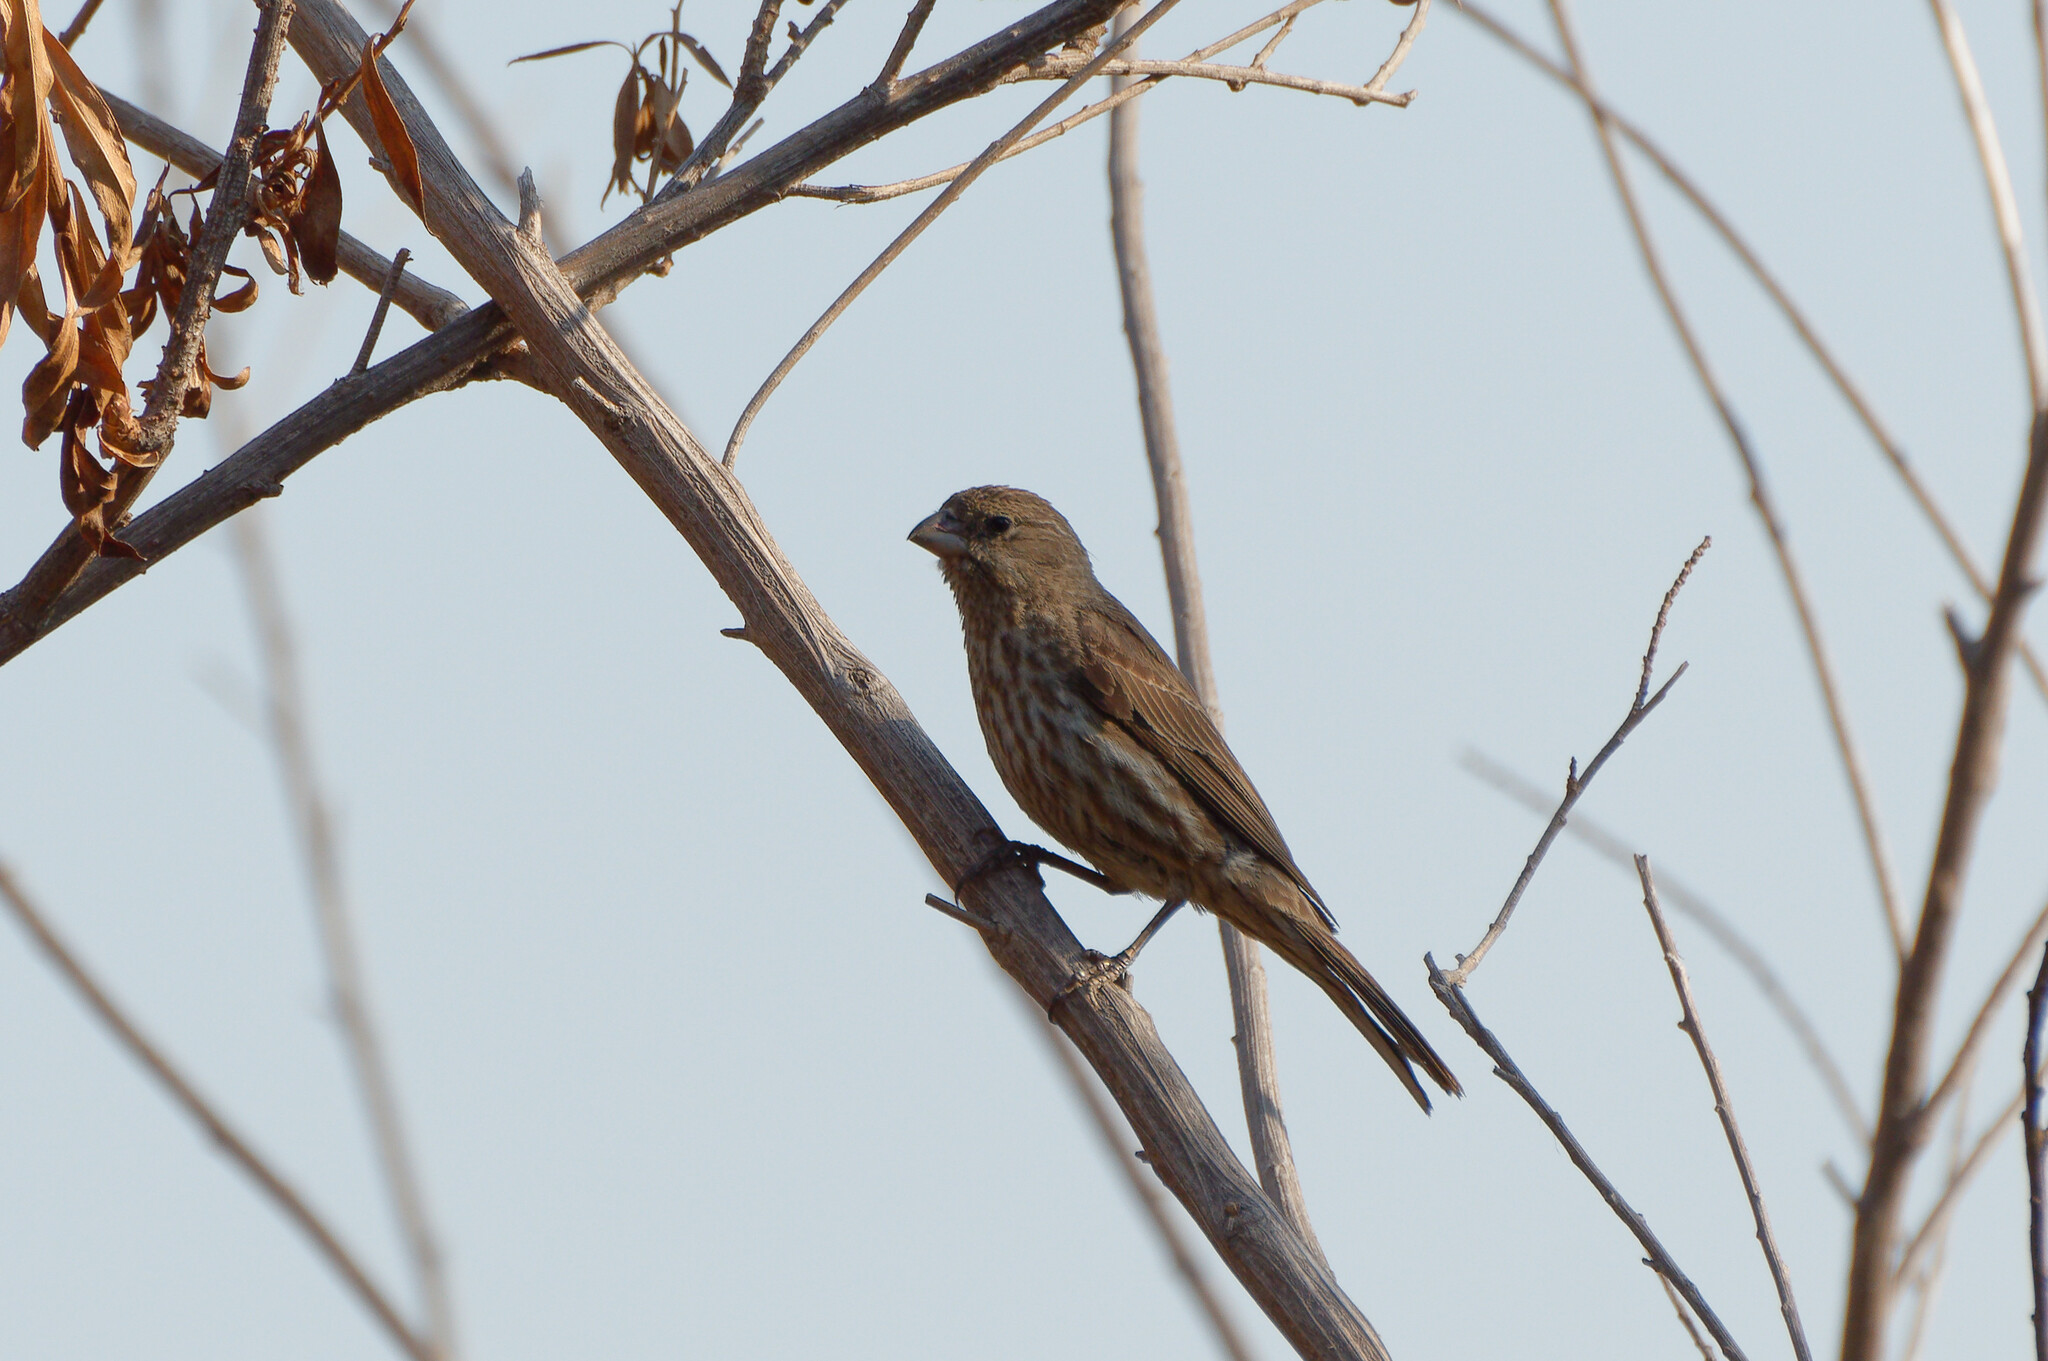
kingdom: Animalia
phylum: Chordata
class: Aves
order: Passeriformes
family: Fringillidae
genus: Haemorhous
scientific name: Haemorhous mexicanus
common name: House finch
